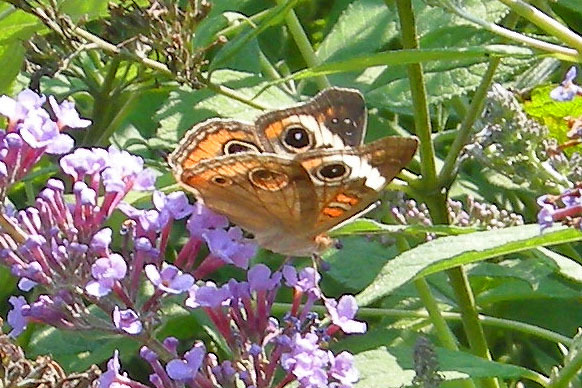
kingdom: Animalia
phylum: Arthropoda
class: Insecta
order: Lepidoptera
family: Nymphalidae
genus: Junonia
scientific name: Junonia coenia
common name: Common buckeye
